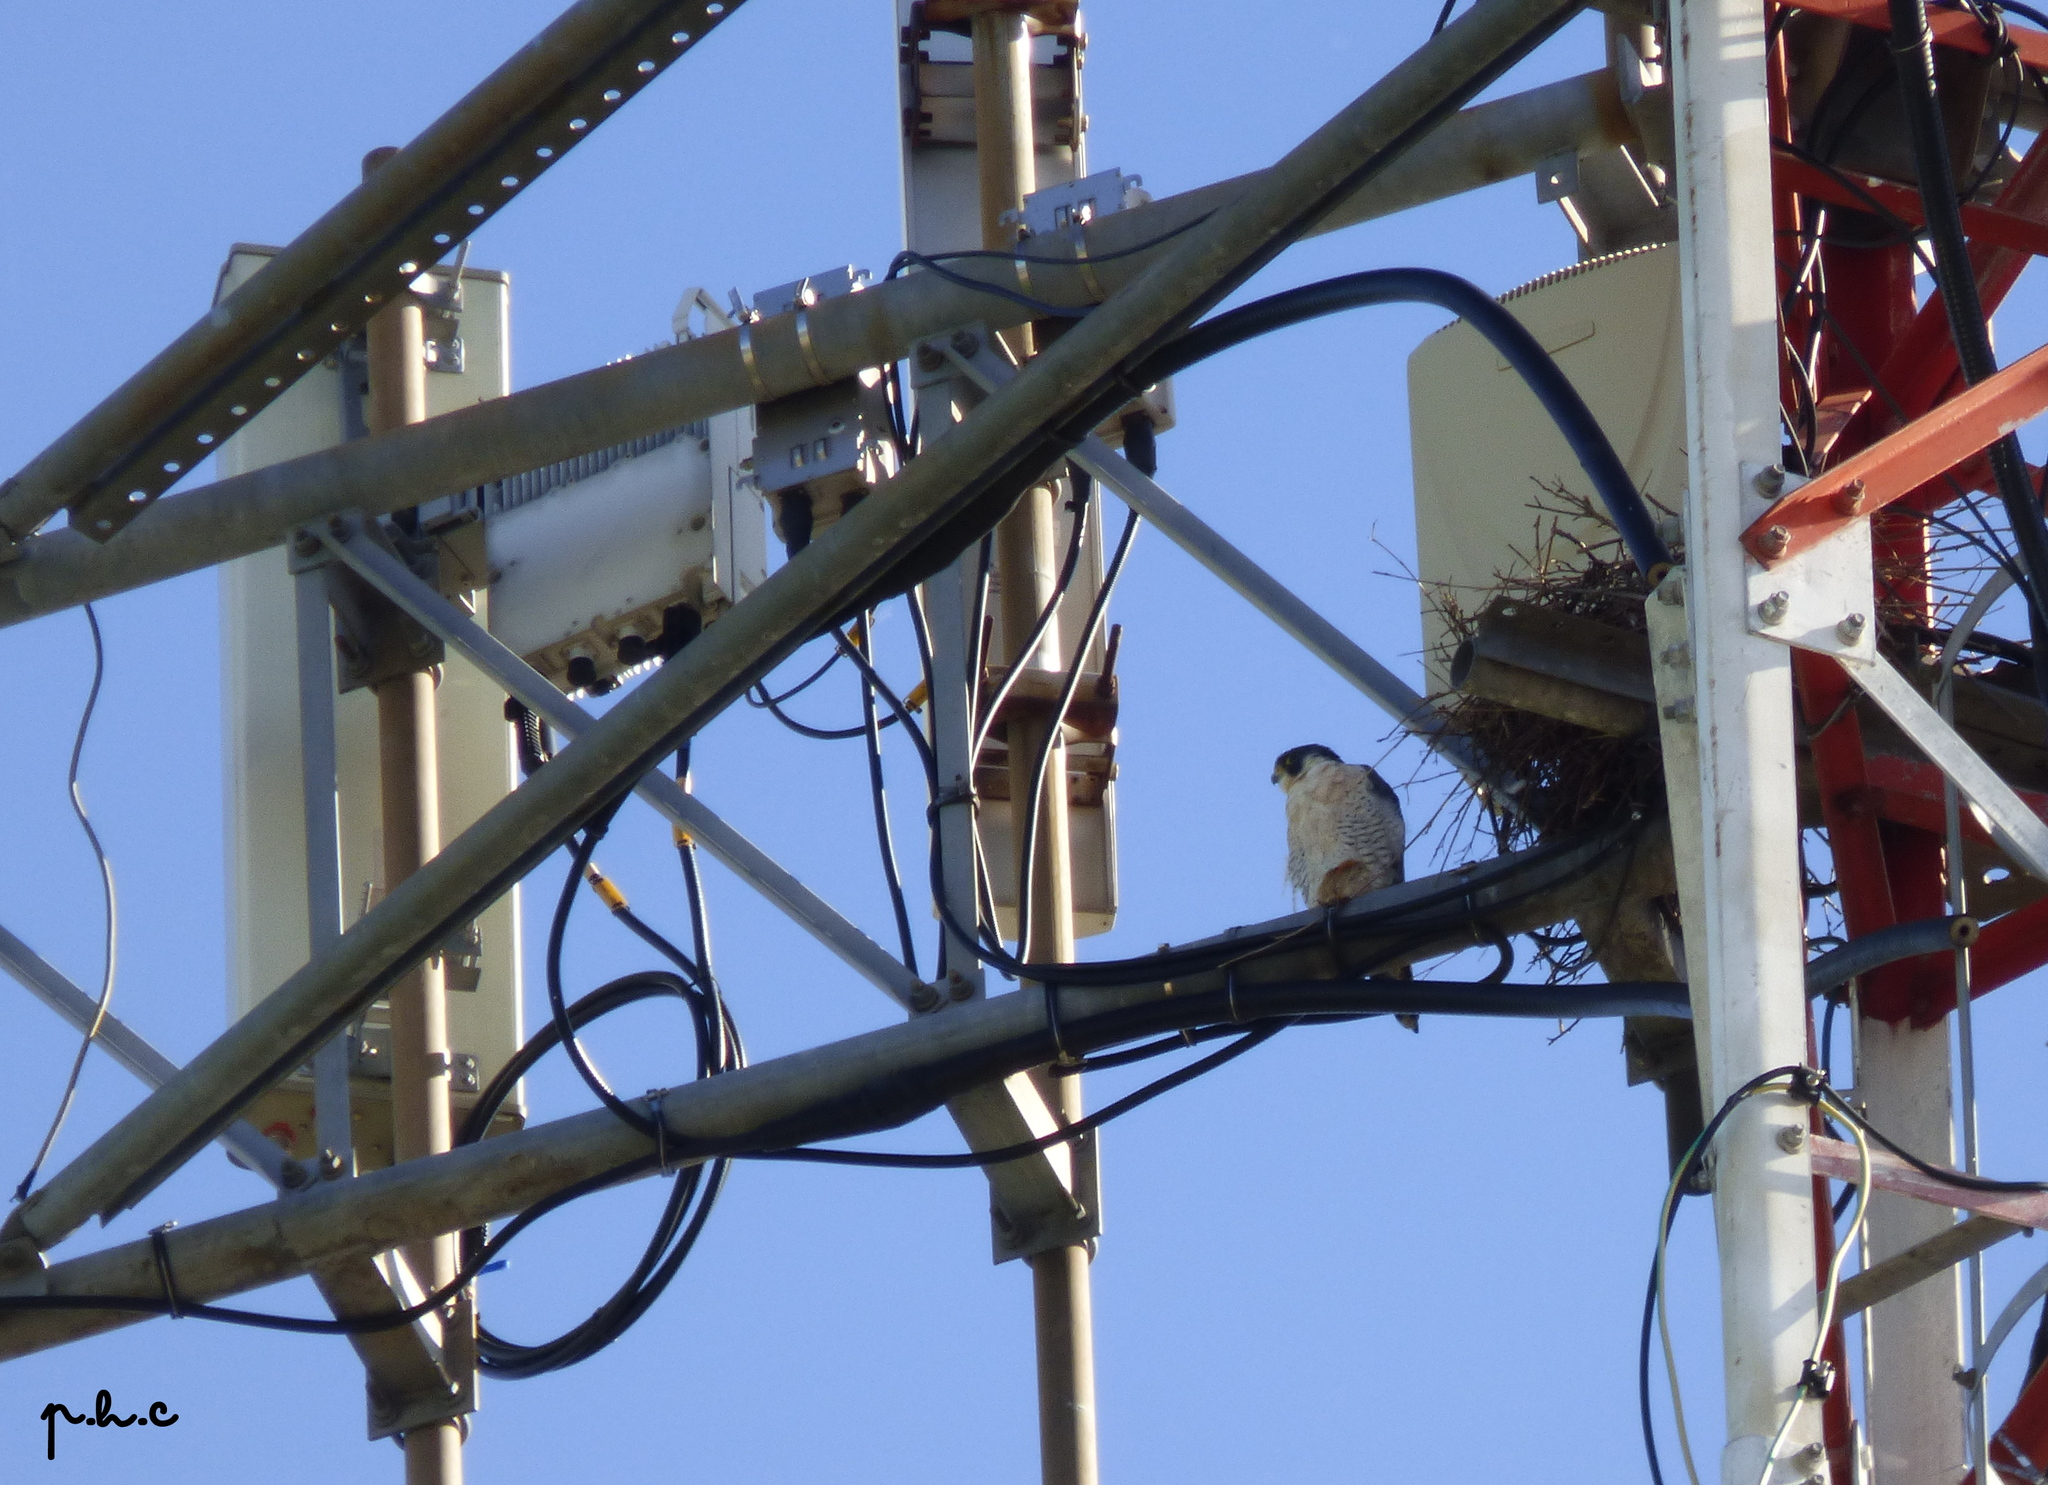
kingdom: Animalia
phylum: Chordata
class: Aves
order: Falconiformes
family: Falconidae
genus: Falco
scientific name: Falco peregrinus
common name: Peregrine falcon
